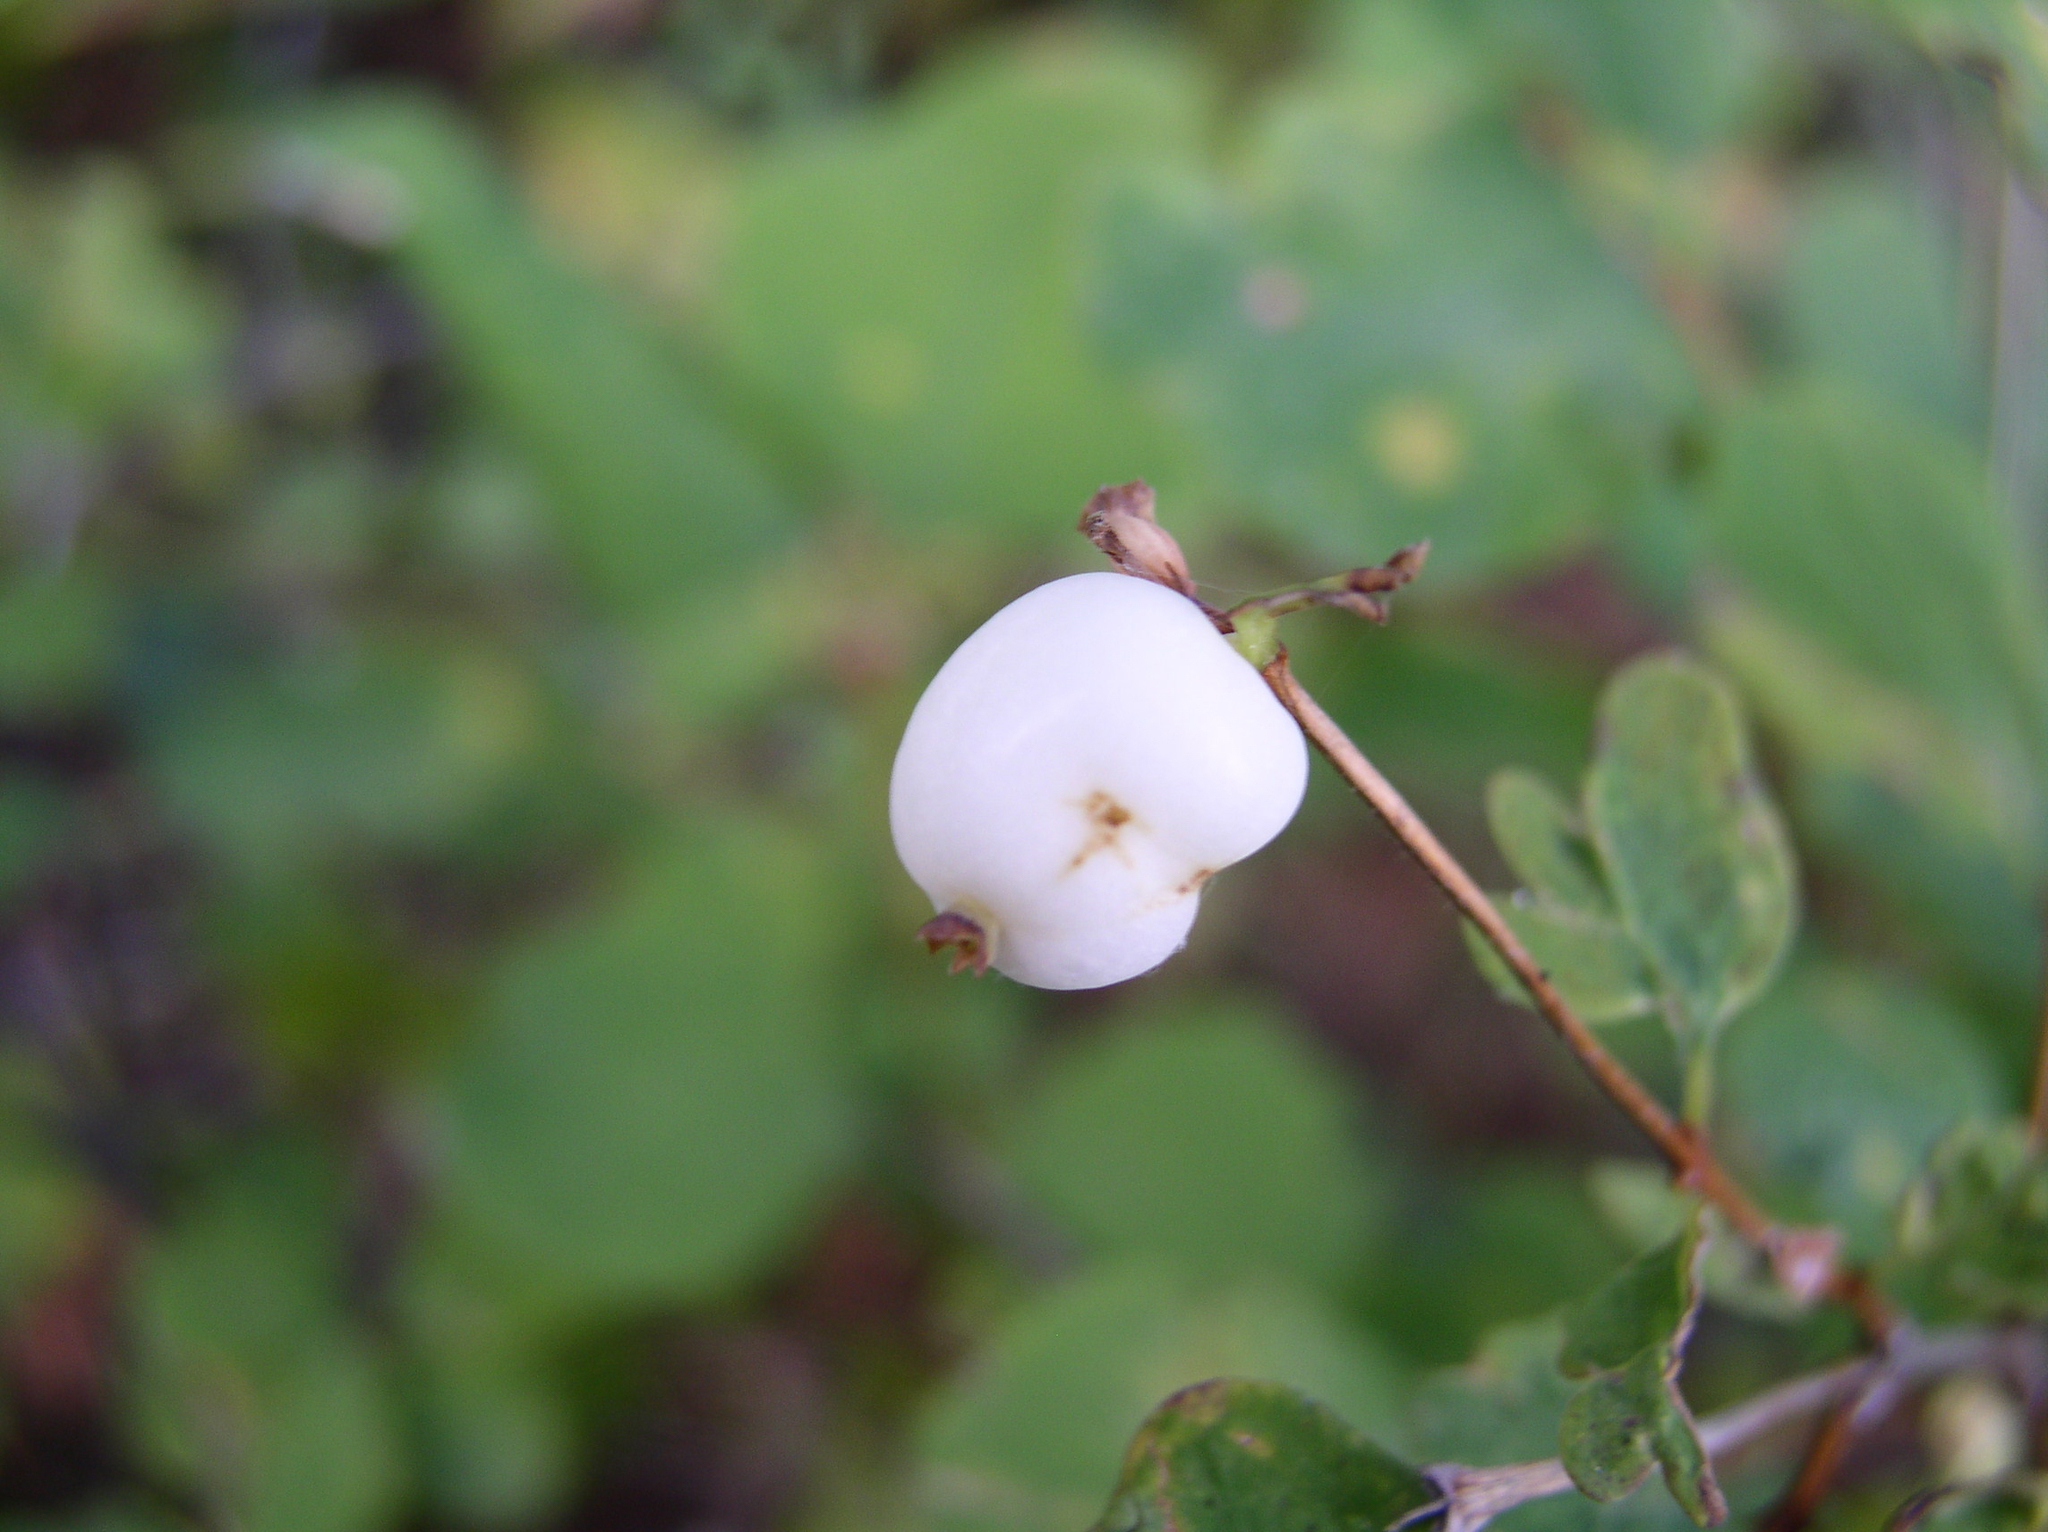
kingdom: Plantae
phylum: Tracheophyta
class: Magnoliopsida
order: Dipsacales
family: Caprifoliaceae
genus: Symphoricarpos
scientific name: Symphoricarpos albus
